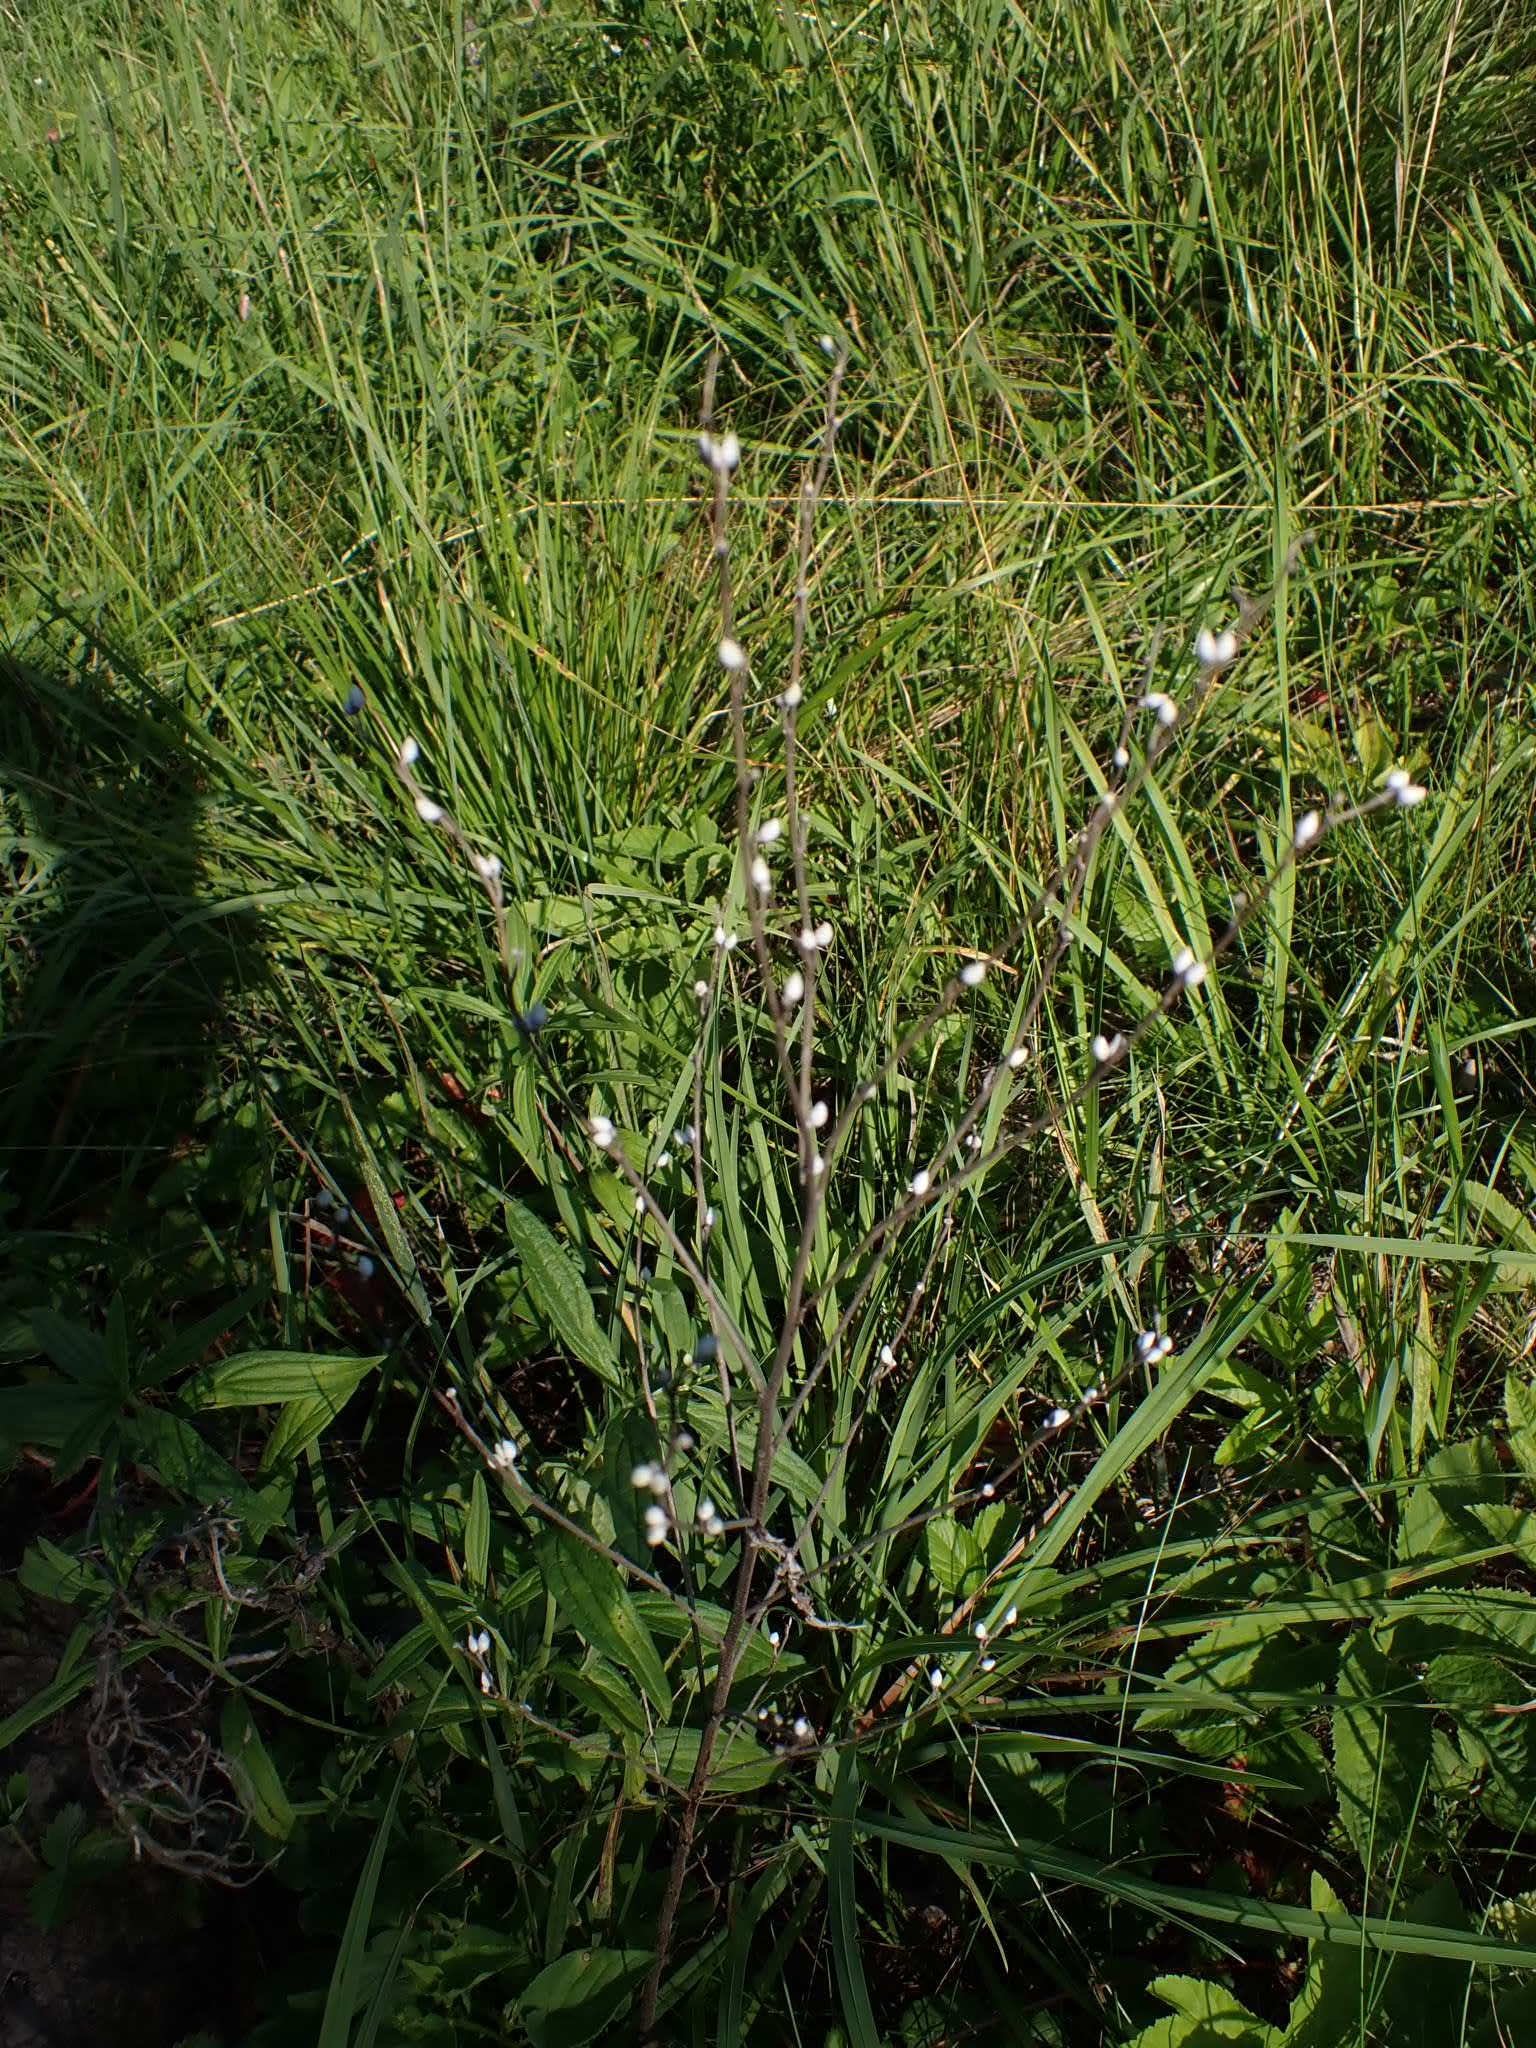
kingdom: Plantae
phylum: Tracheophyta
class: Magnoliopsida
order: Boraginales
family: Boraginaceae
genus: Lithospermum
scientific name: Lithospermum officinale
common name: Common gromwell
